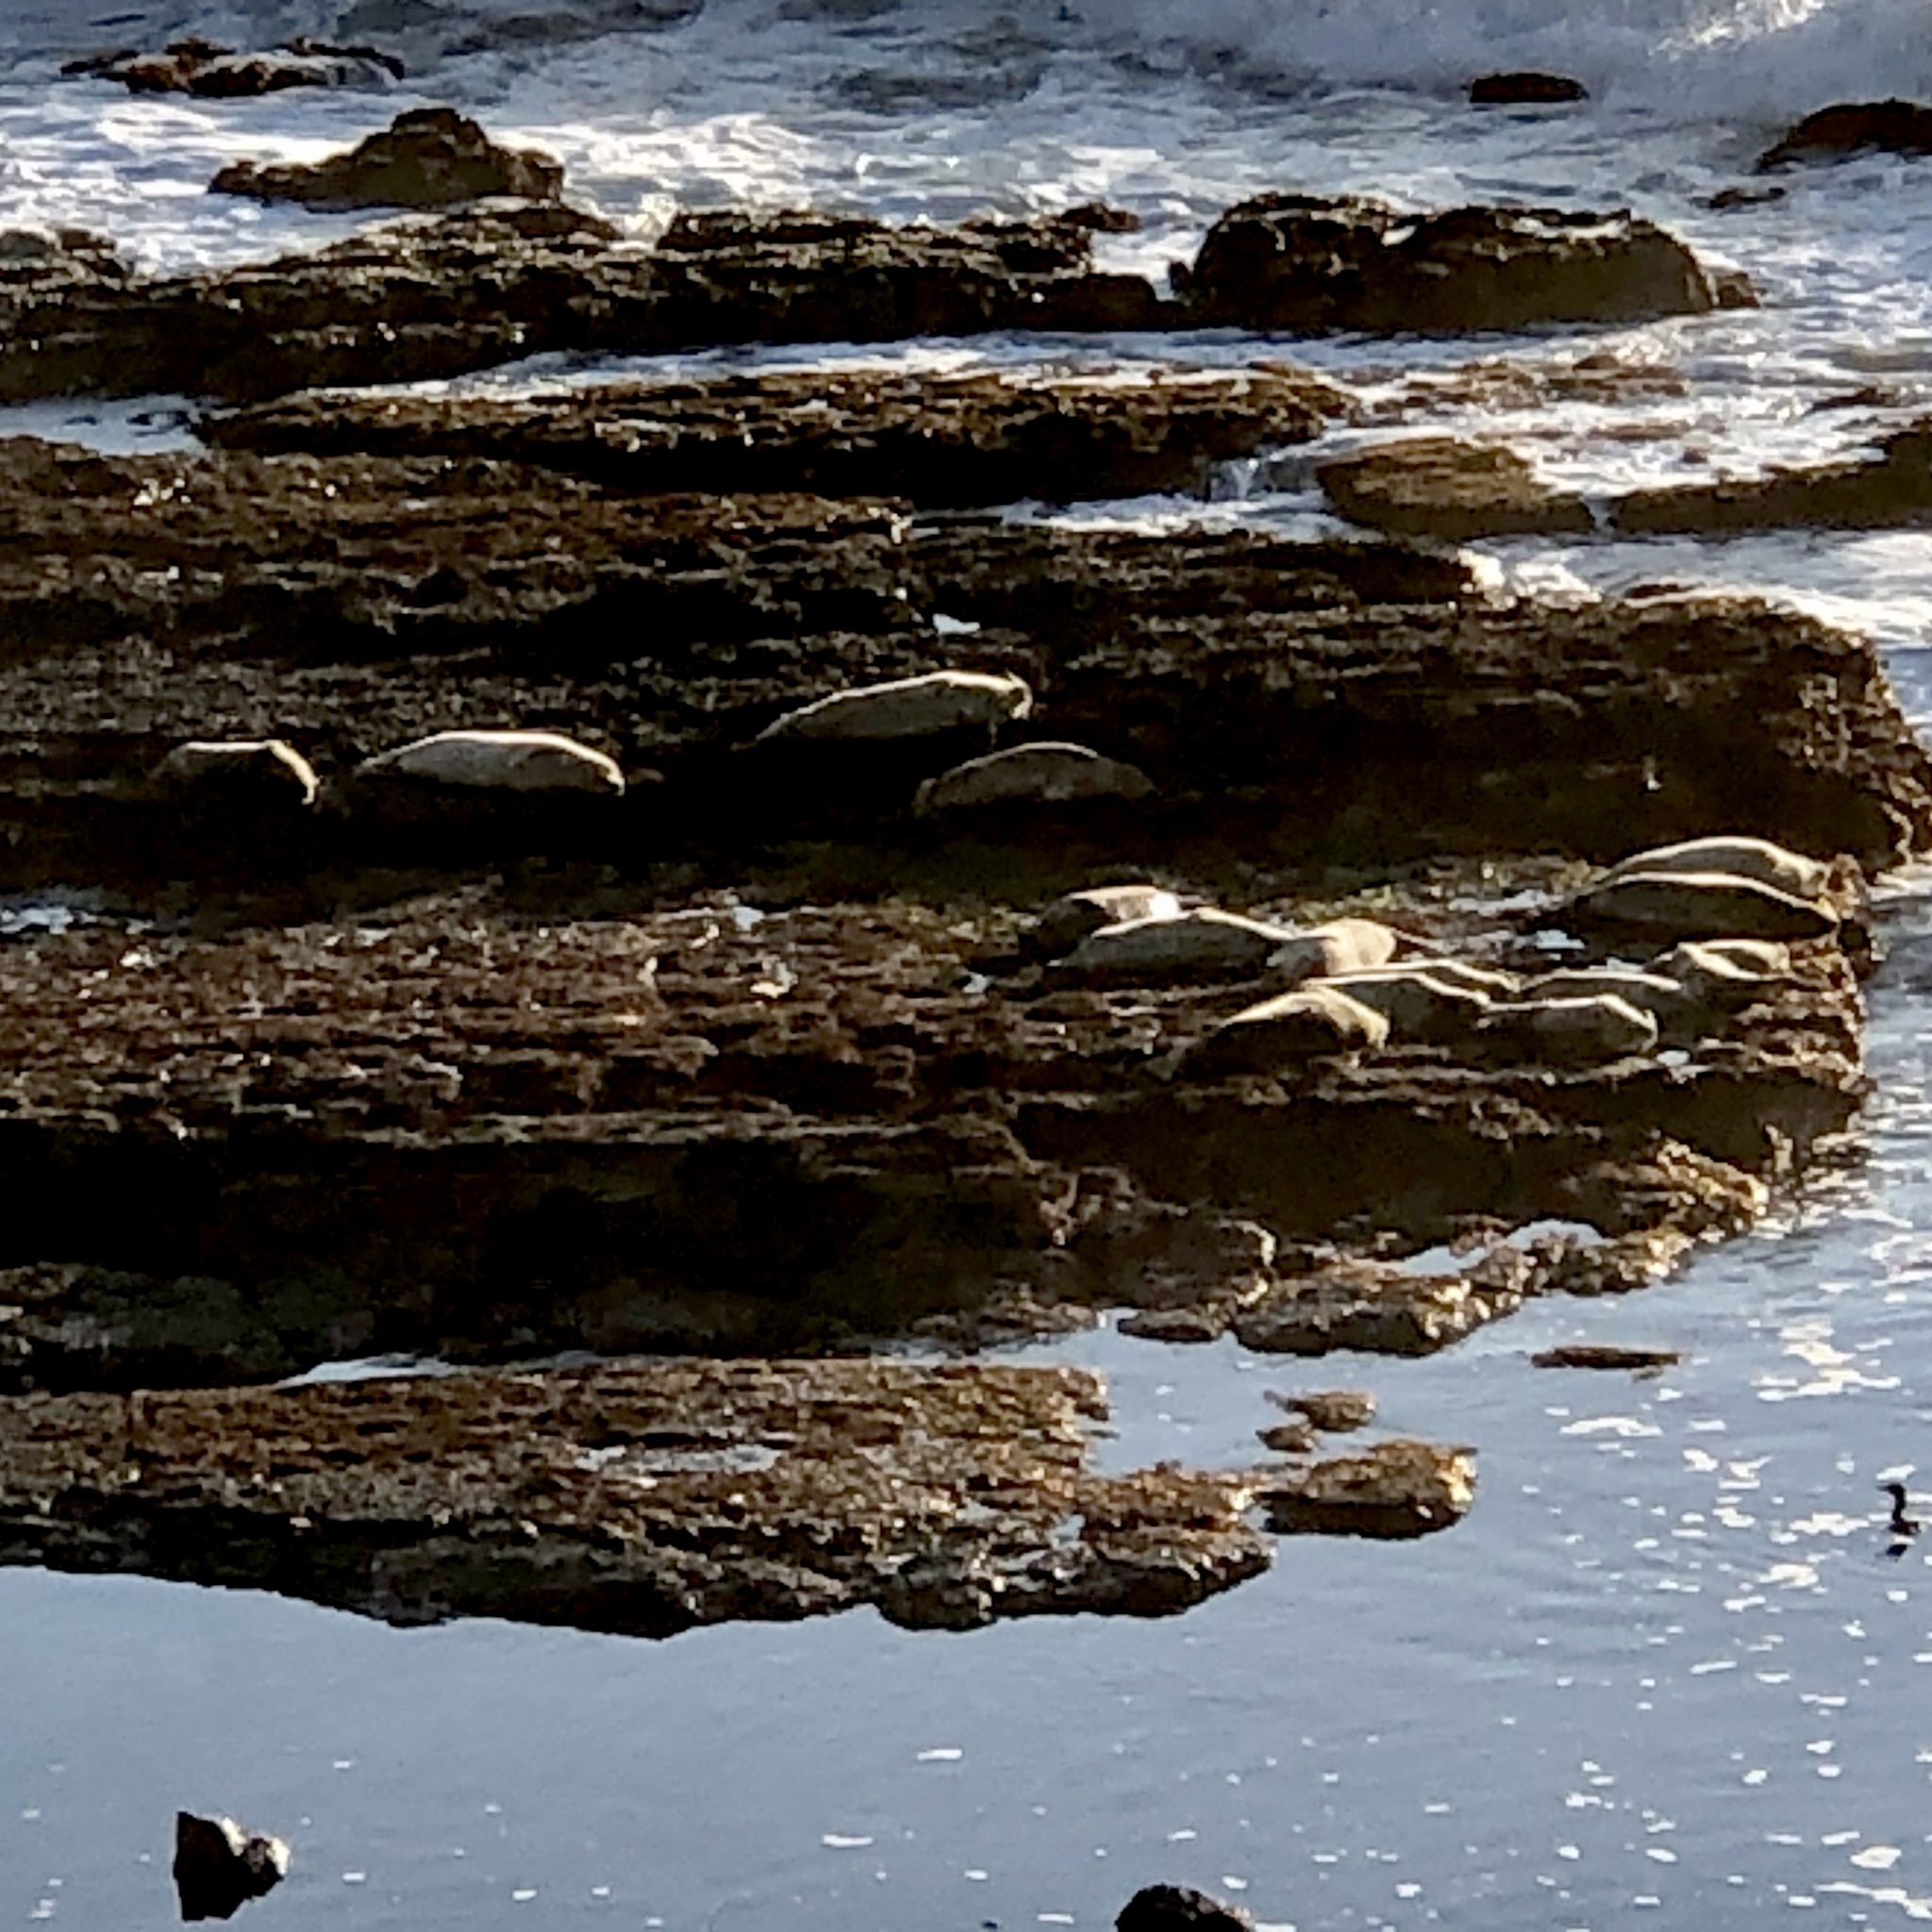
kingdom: Animalia
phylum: Chordata
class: Mammalia
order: Carnivora
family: Phocidae
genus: Phoca
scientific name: Phoca vitulina
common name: Harbor seal
